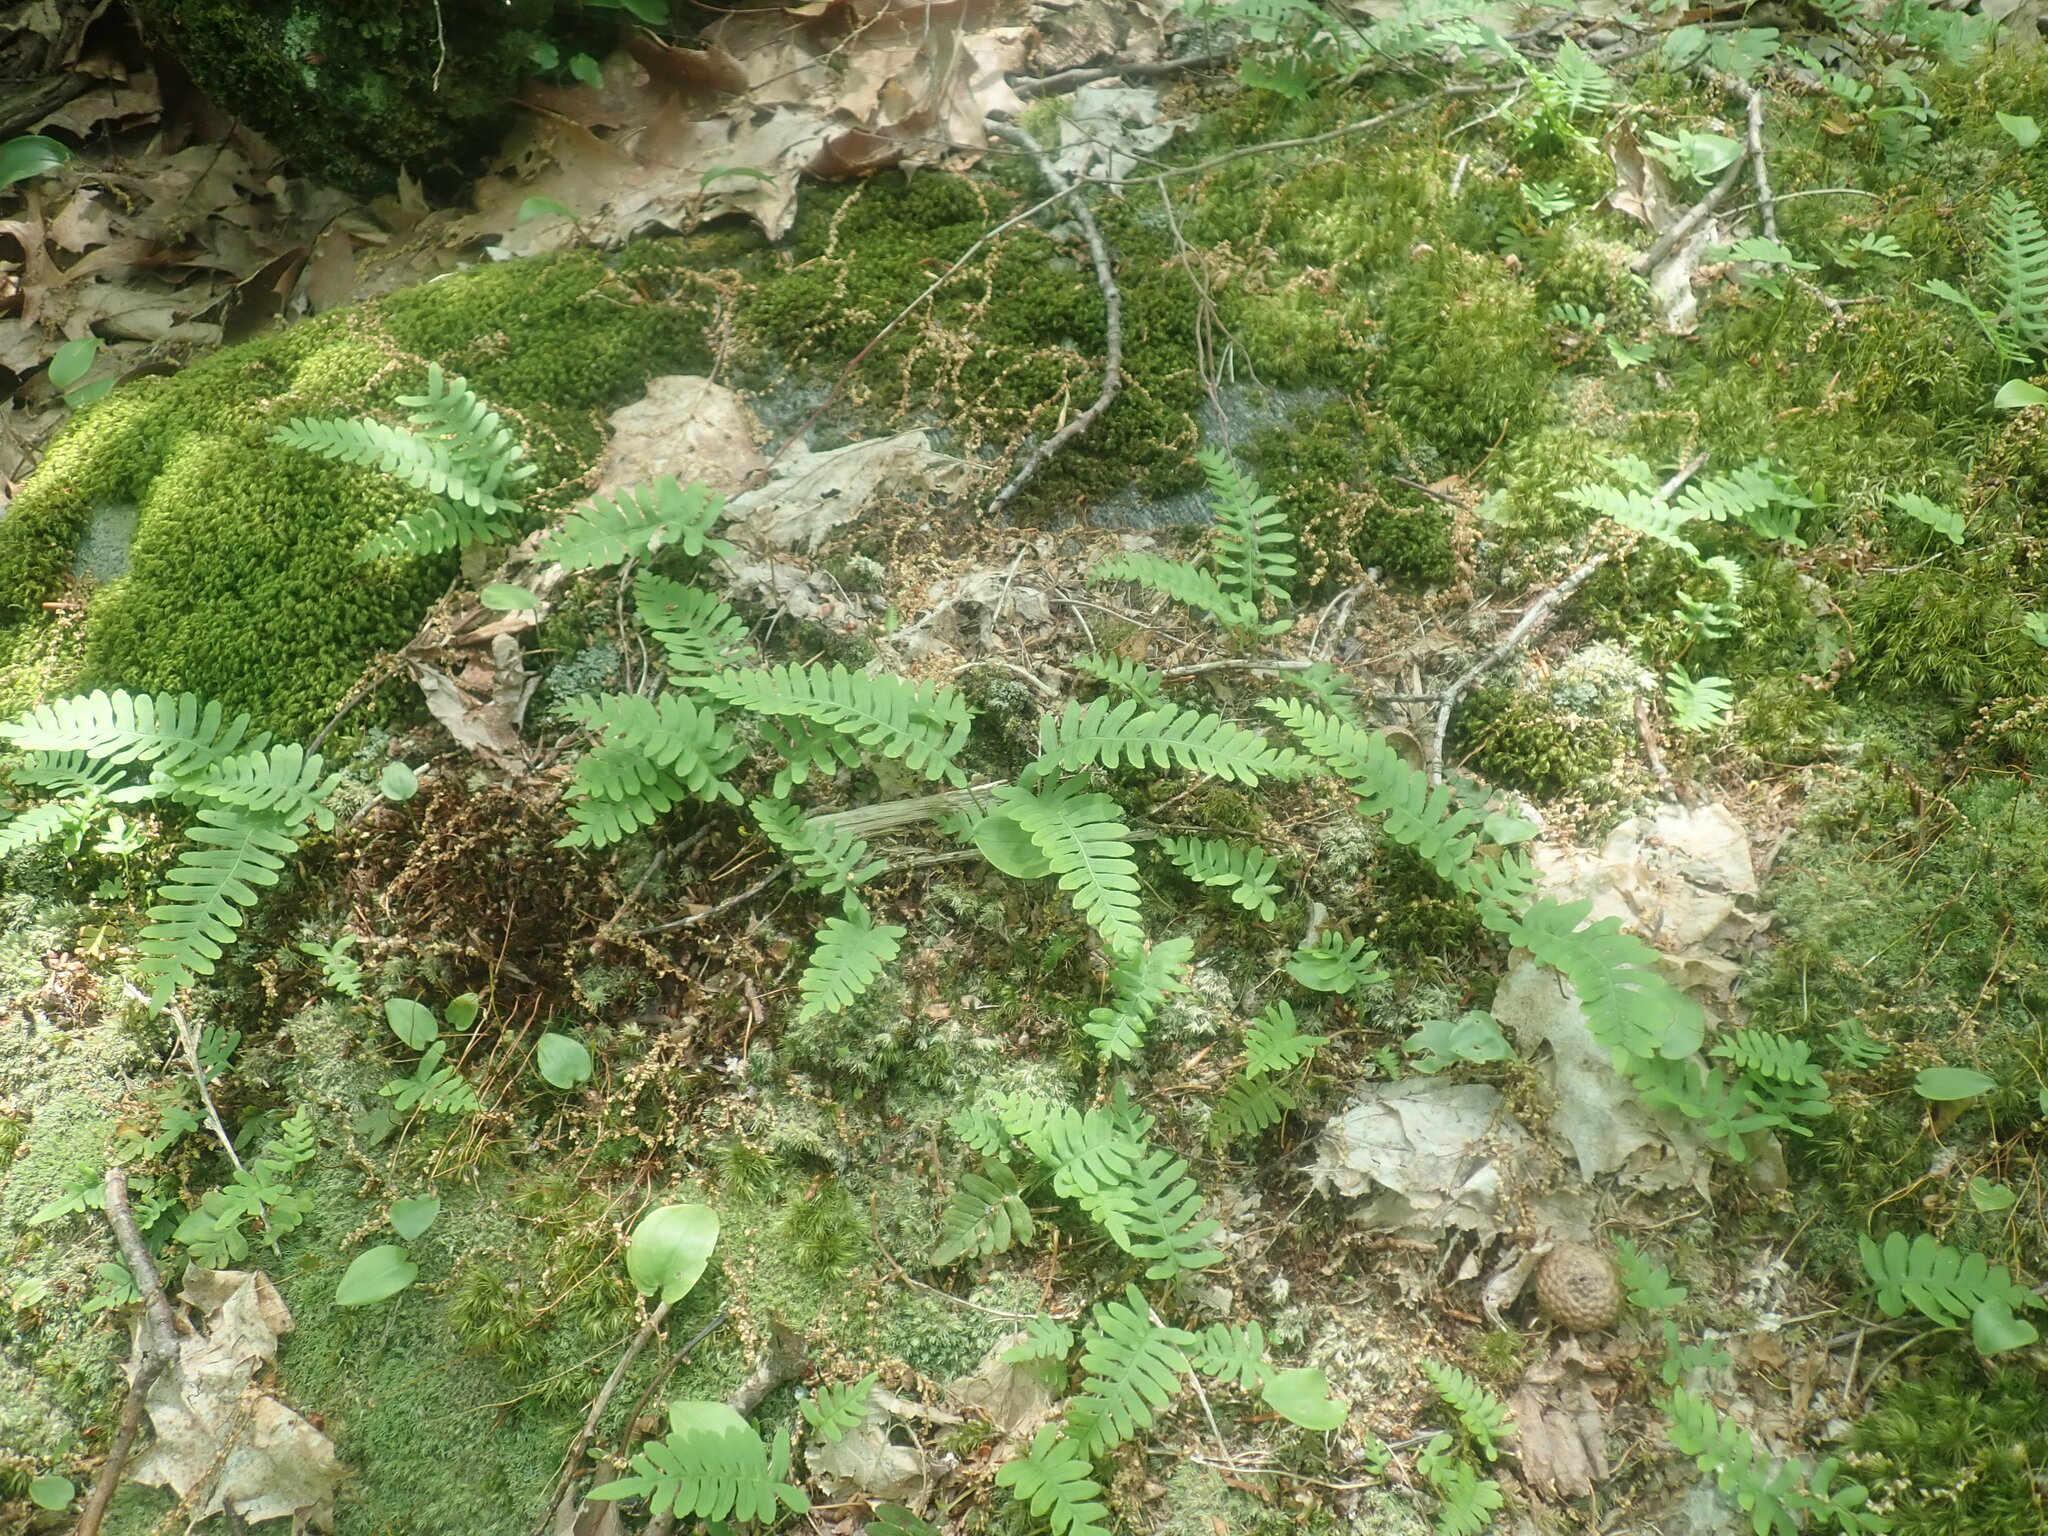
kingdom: Plantae
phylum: Tracheophyta
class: Polypodiopsida
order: Polypodiales
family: Polypodiaceae
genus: Polypodium
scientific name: Polypodium
